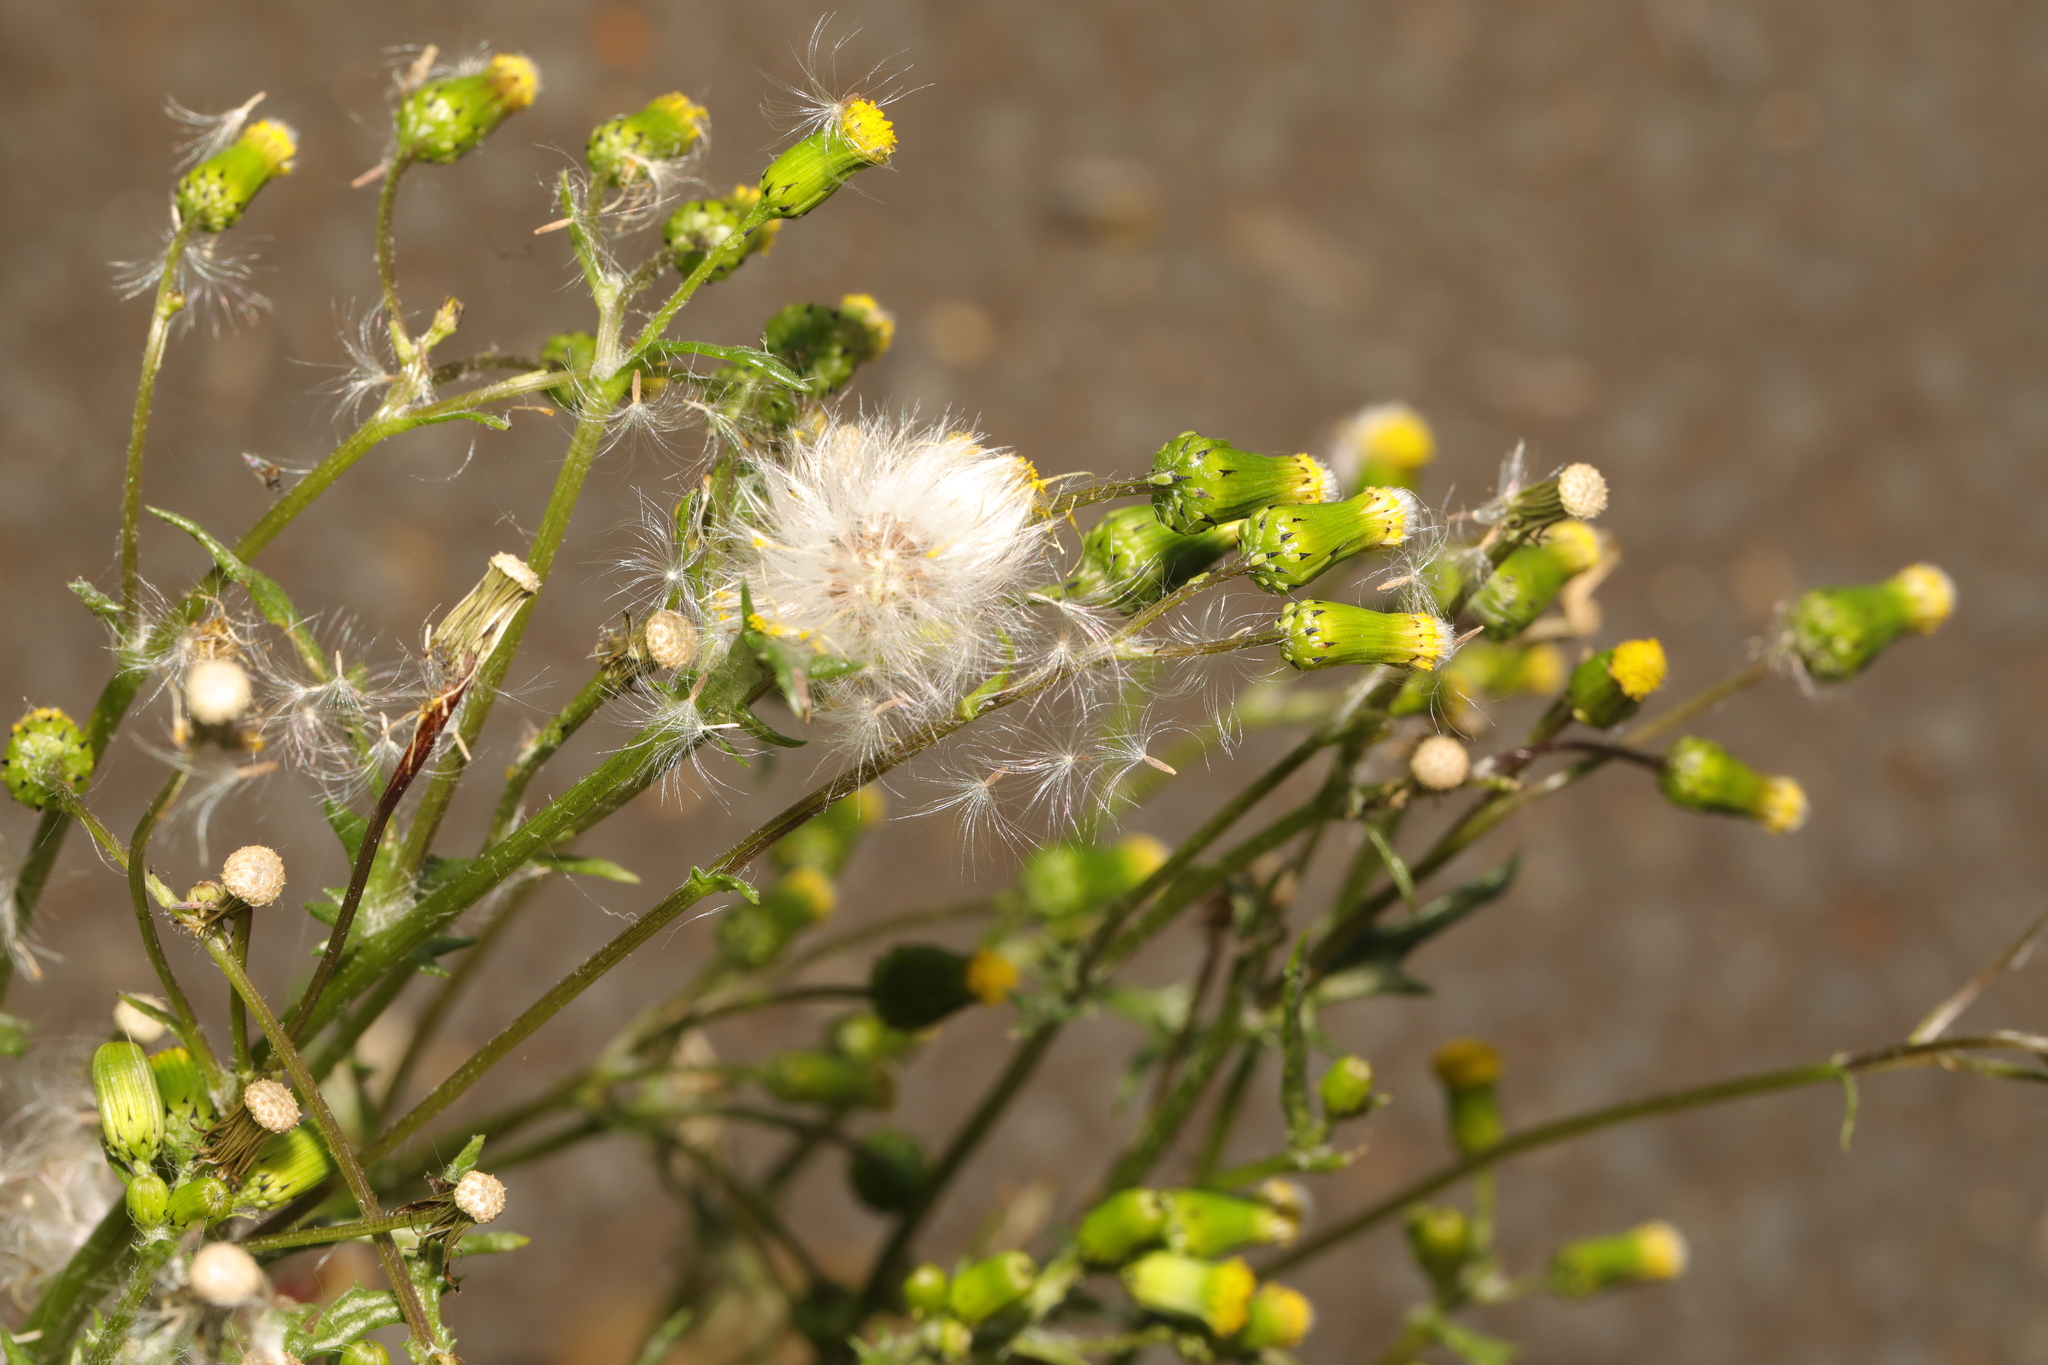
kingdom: Plantae
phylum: Tracheophyta
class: Magnoliopsida
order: Asterales
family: Asteraceae
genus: Senecio
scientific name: Senecio vulgaris
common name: Old-man-in-the-spring
